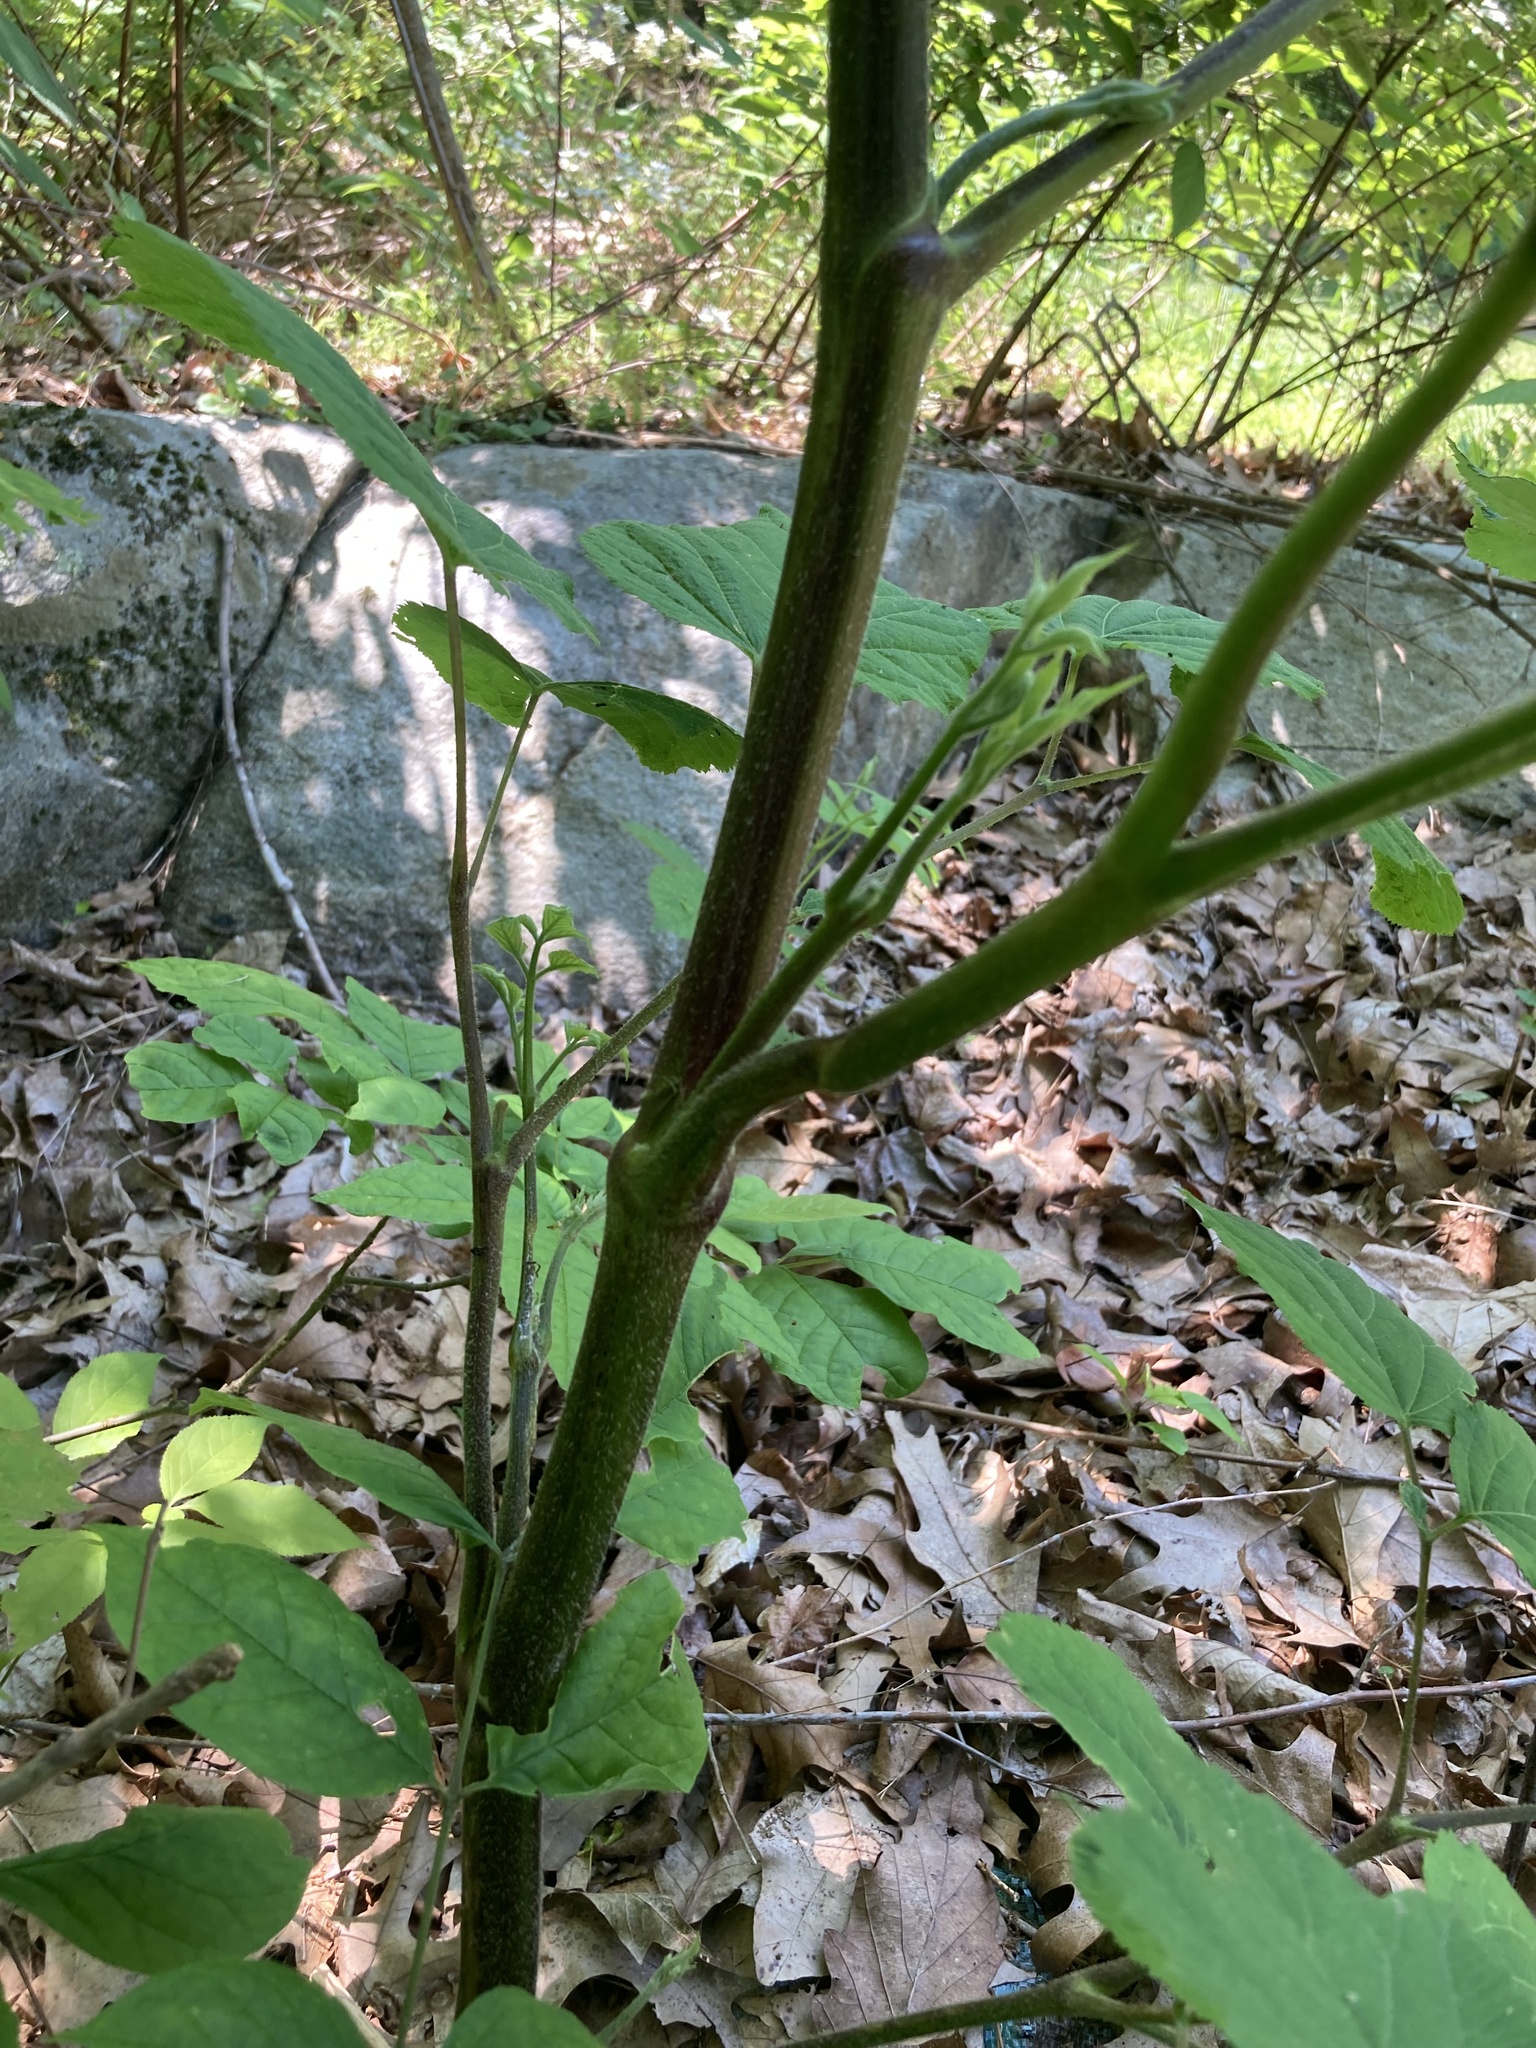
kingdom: Plantae
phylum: Tracheophyta
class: Magnoliopsida
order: Apiales
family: Araliaceae
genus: Aralia
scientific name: Aralia racemosa
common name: American-spikenard
